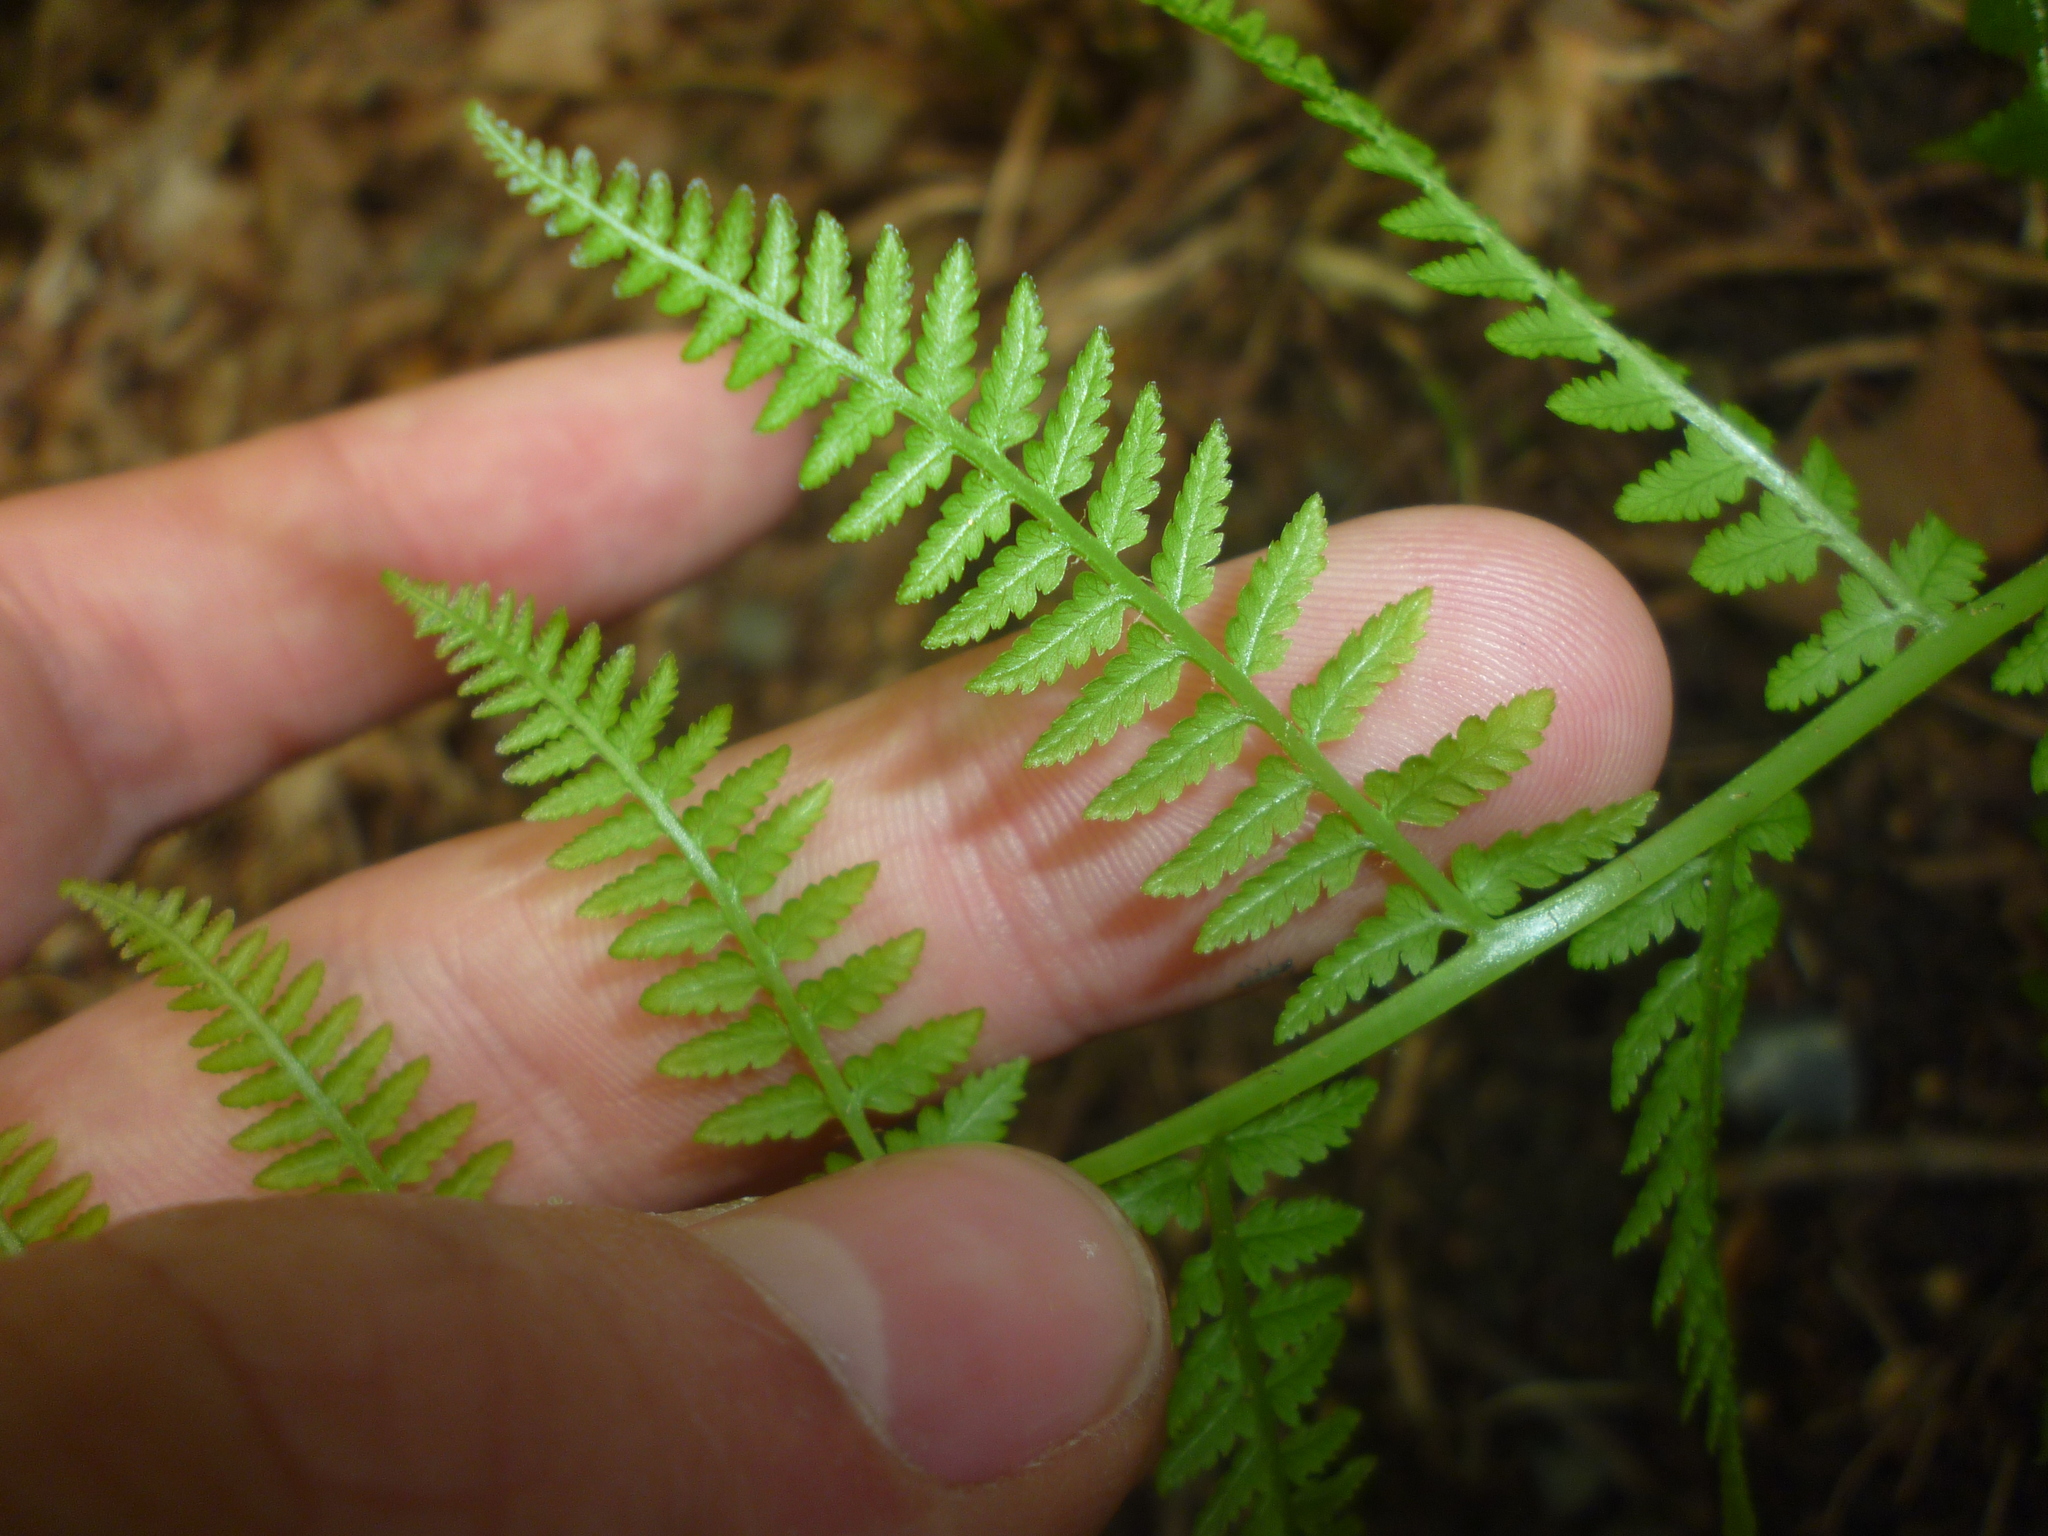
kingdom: Plantae
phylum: Tracheophyta
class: Polypodiopsida
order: Polypodiales
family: Athyriaceae
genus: Athyrium
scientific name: Athyrium angustum
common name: Northern lady fern
